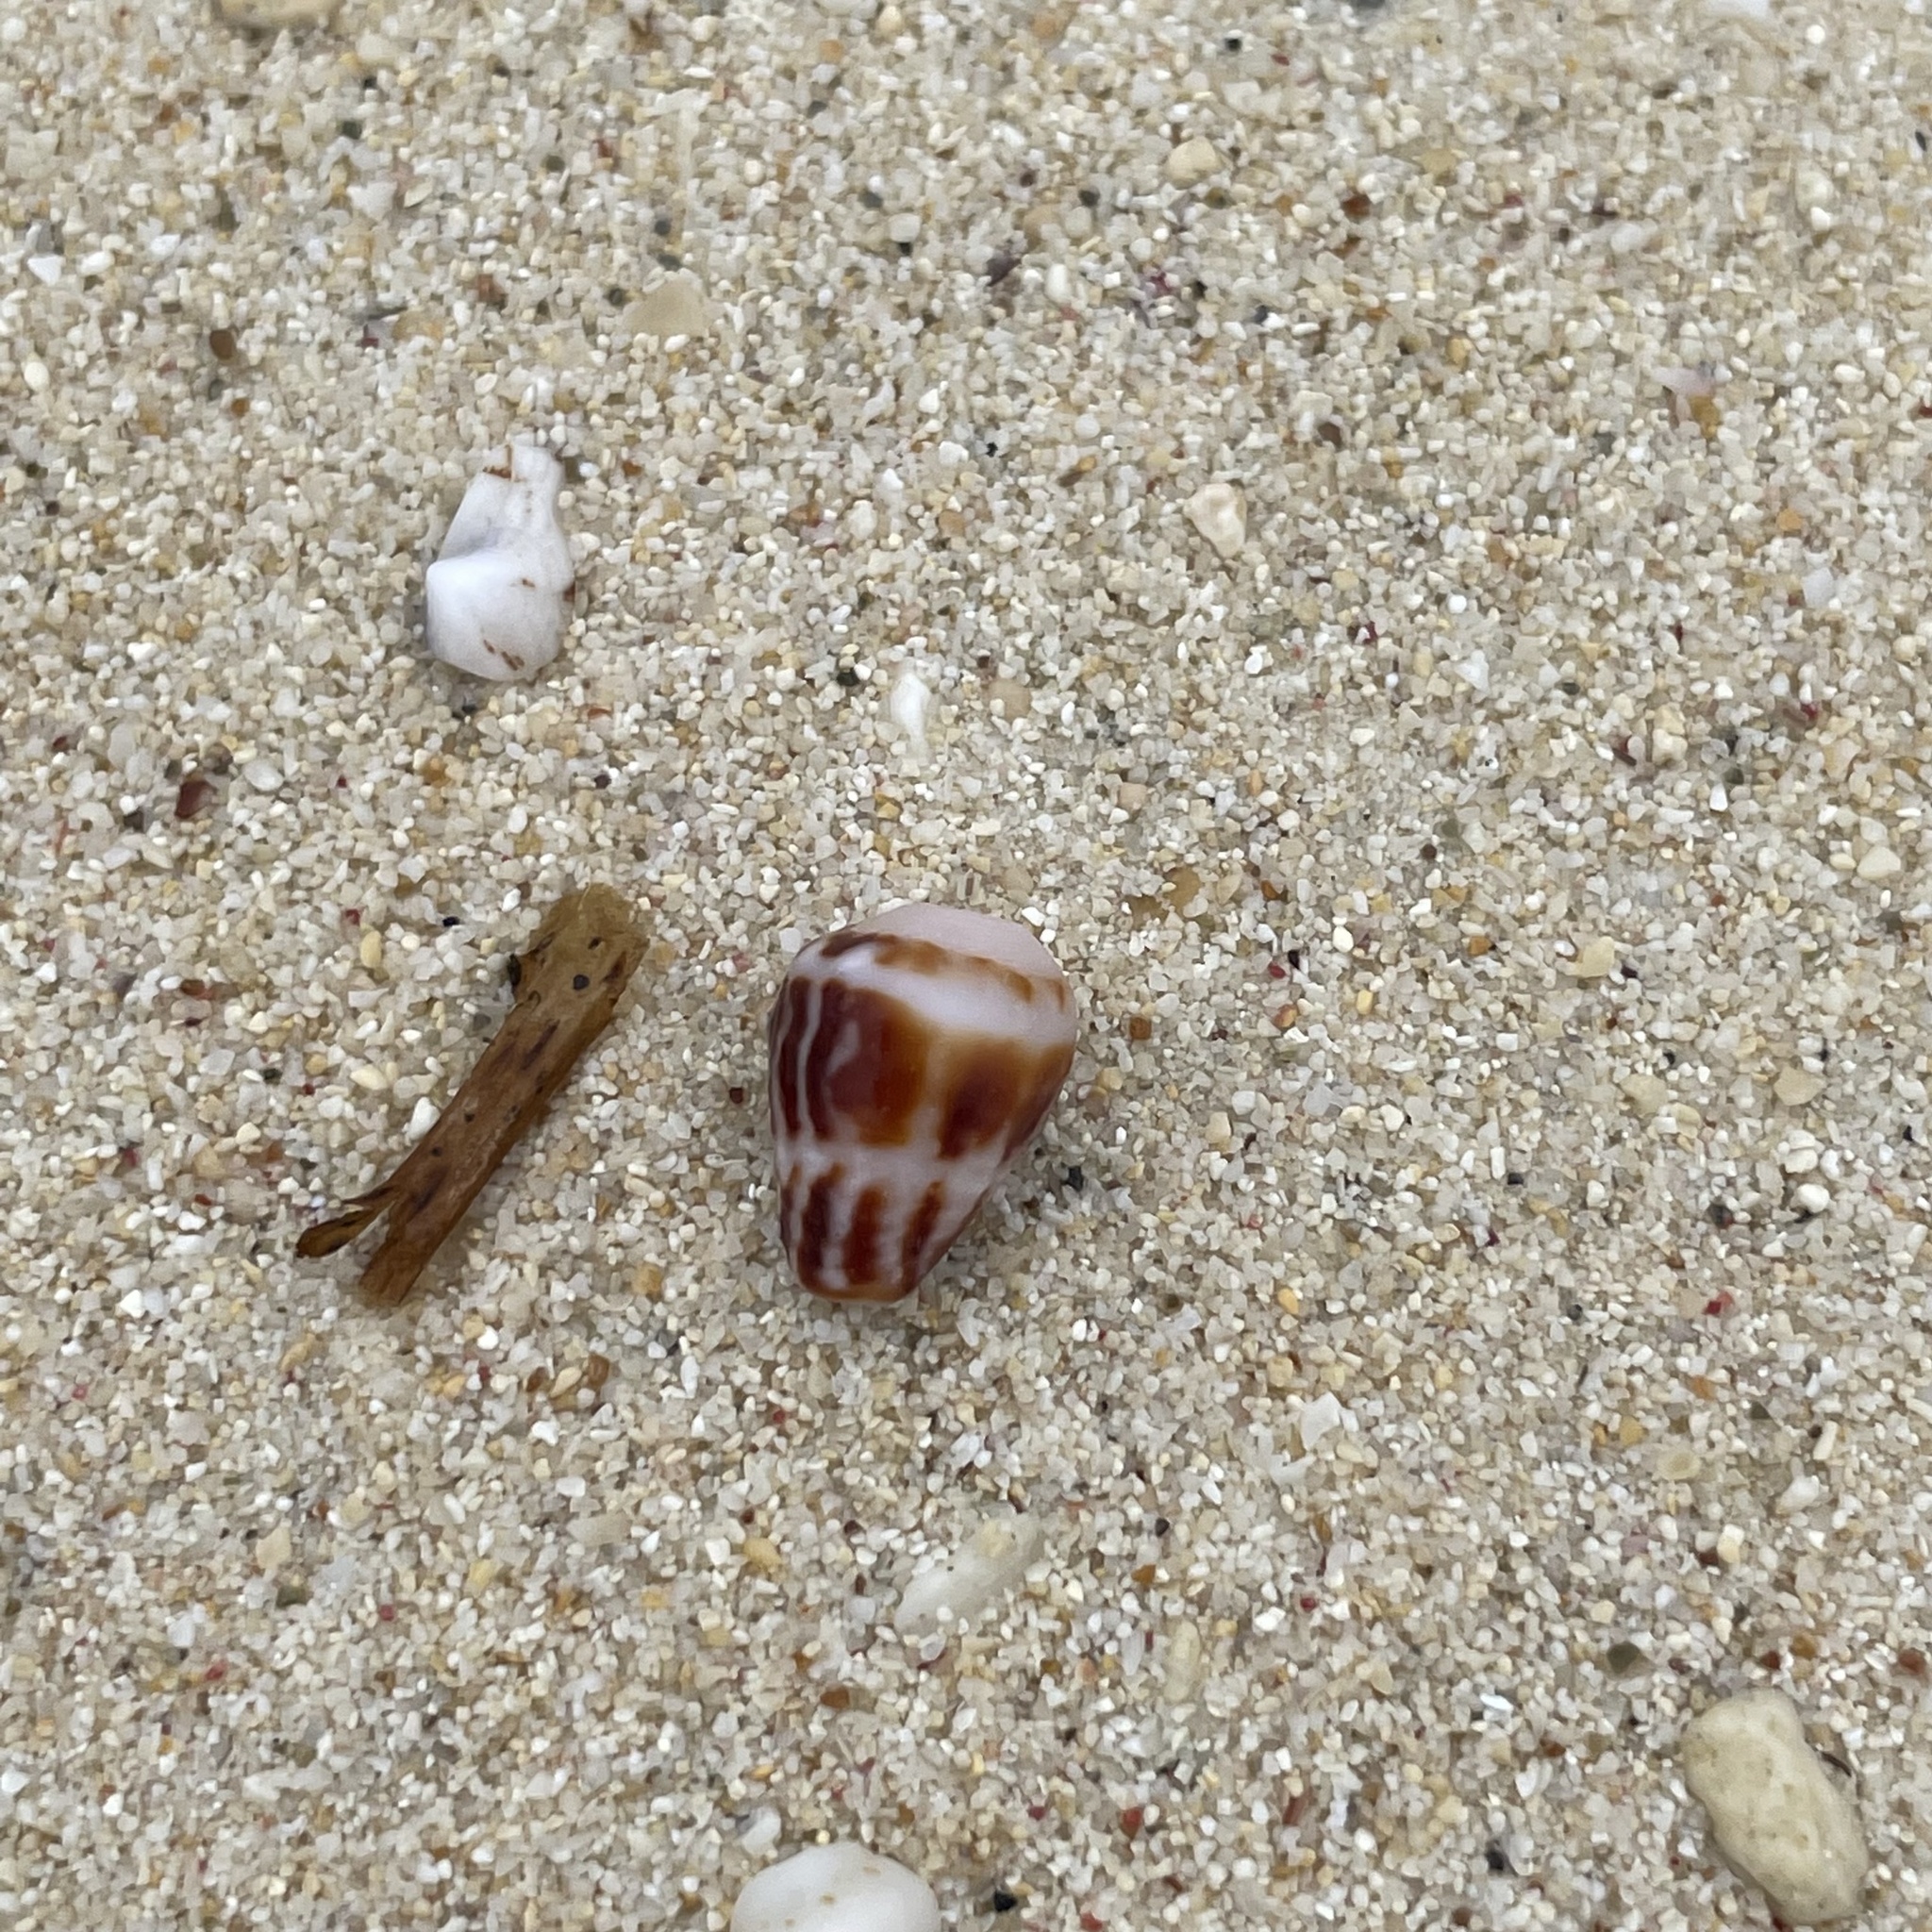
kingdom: Animalia
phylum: Mollusca
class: Gastropoda
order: Neogastropoda
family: Conidae
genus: Conus
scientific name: Conus chaldaeus
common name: Astrologer's cone
